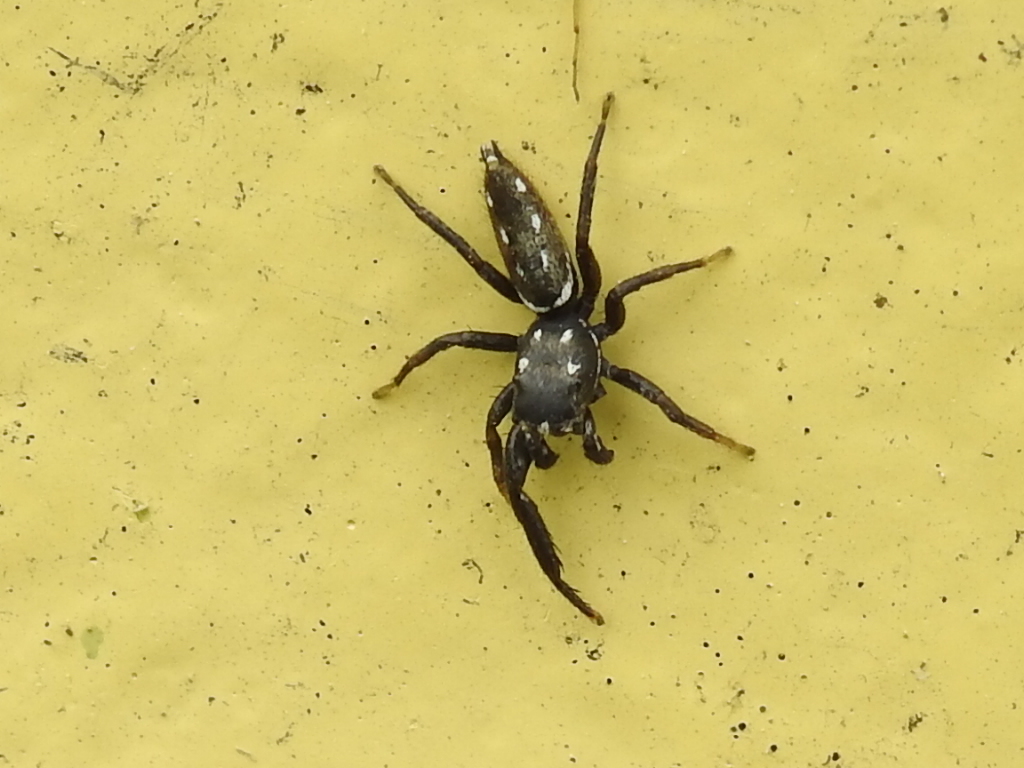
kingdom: Animalia
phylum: Arthropoda
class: Arachnida
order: Araneae
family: Salticidae
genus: Marpissa
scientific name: Marpissa formosa
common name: Short-bellied slender jumping spider
